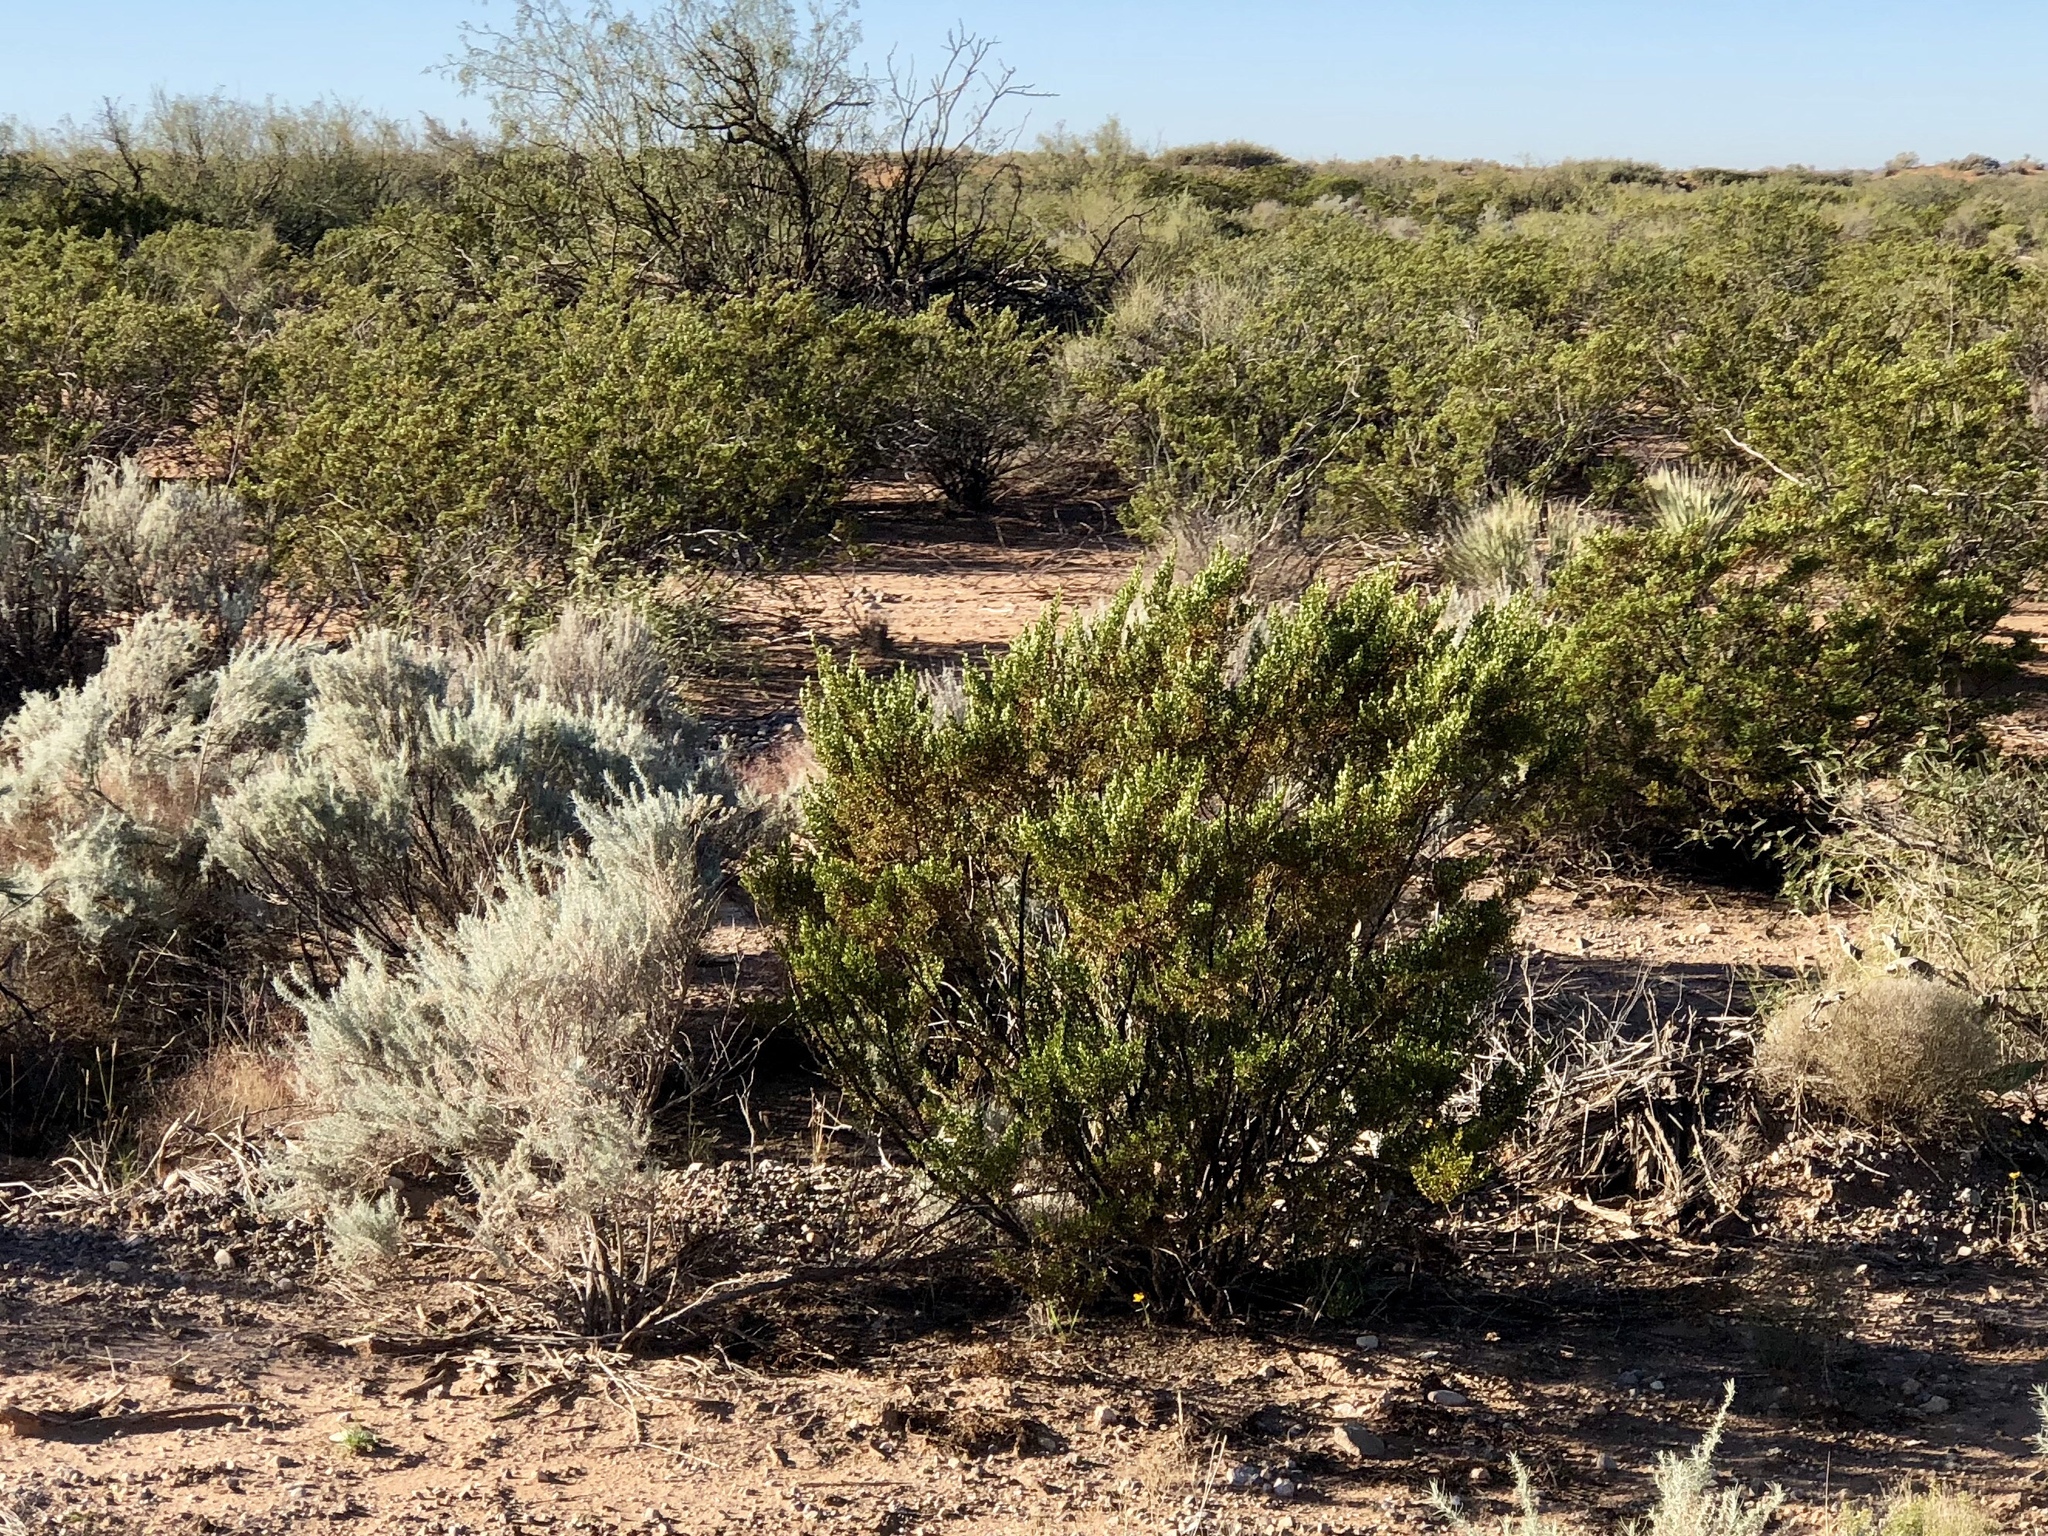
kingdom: Plantae
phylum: Tracheophyta
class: Magnoliopsida
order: Zygophyllales
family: Zygophyllaceae
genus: Larrea
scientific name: Larrea tridentata
